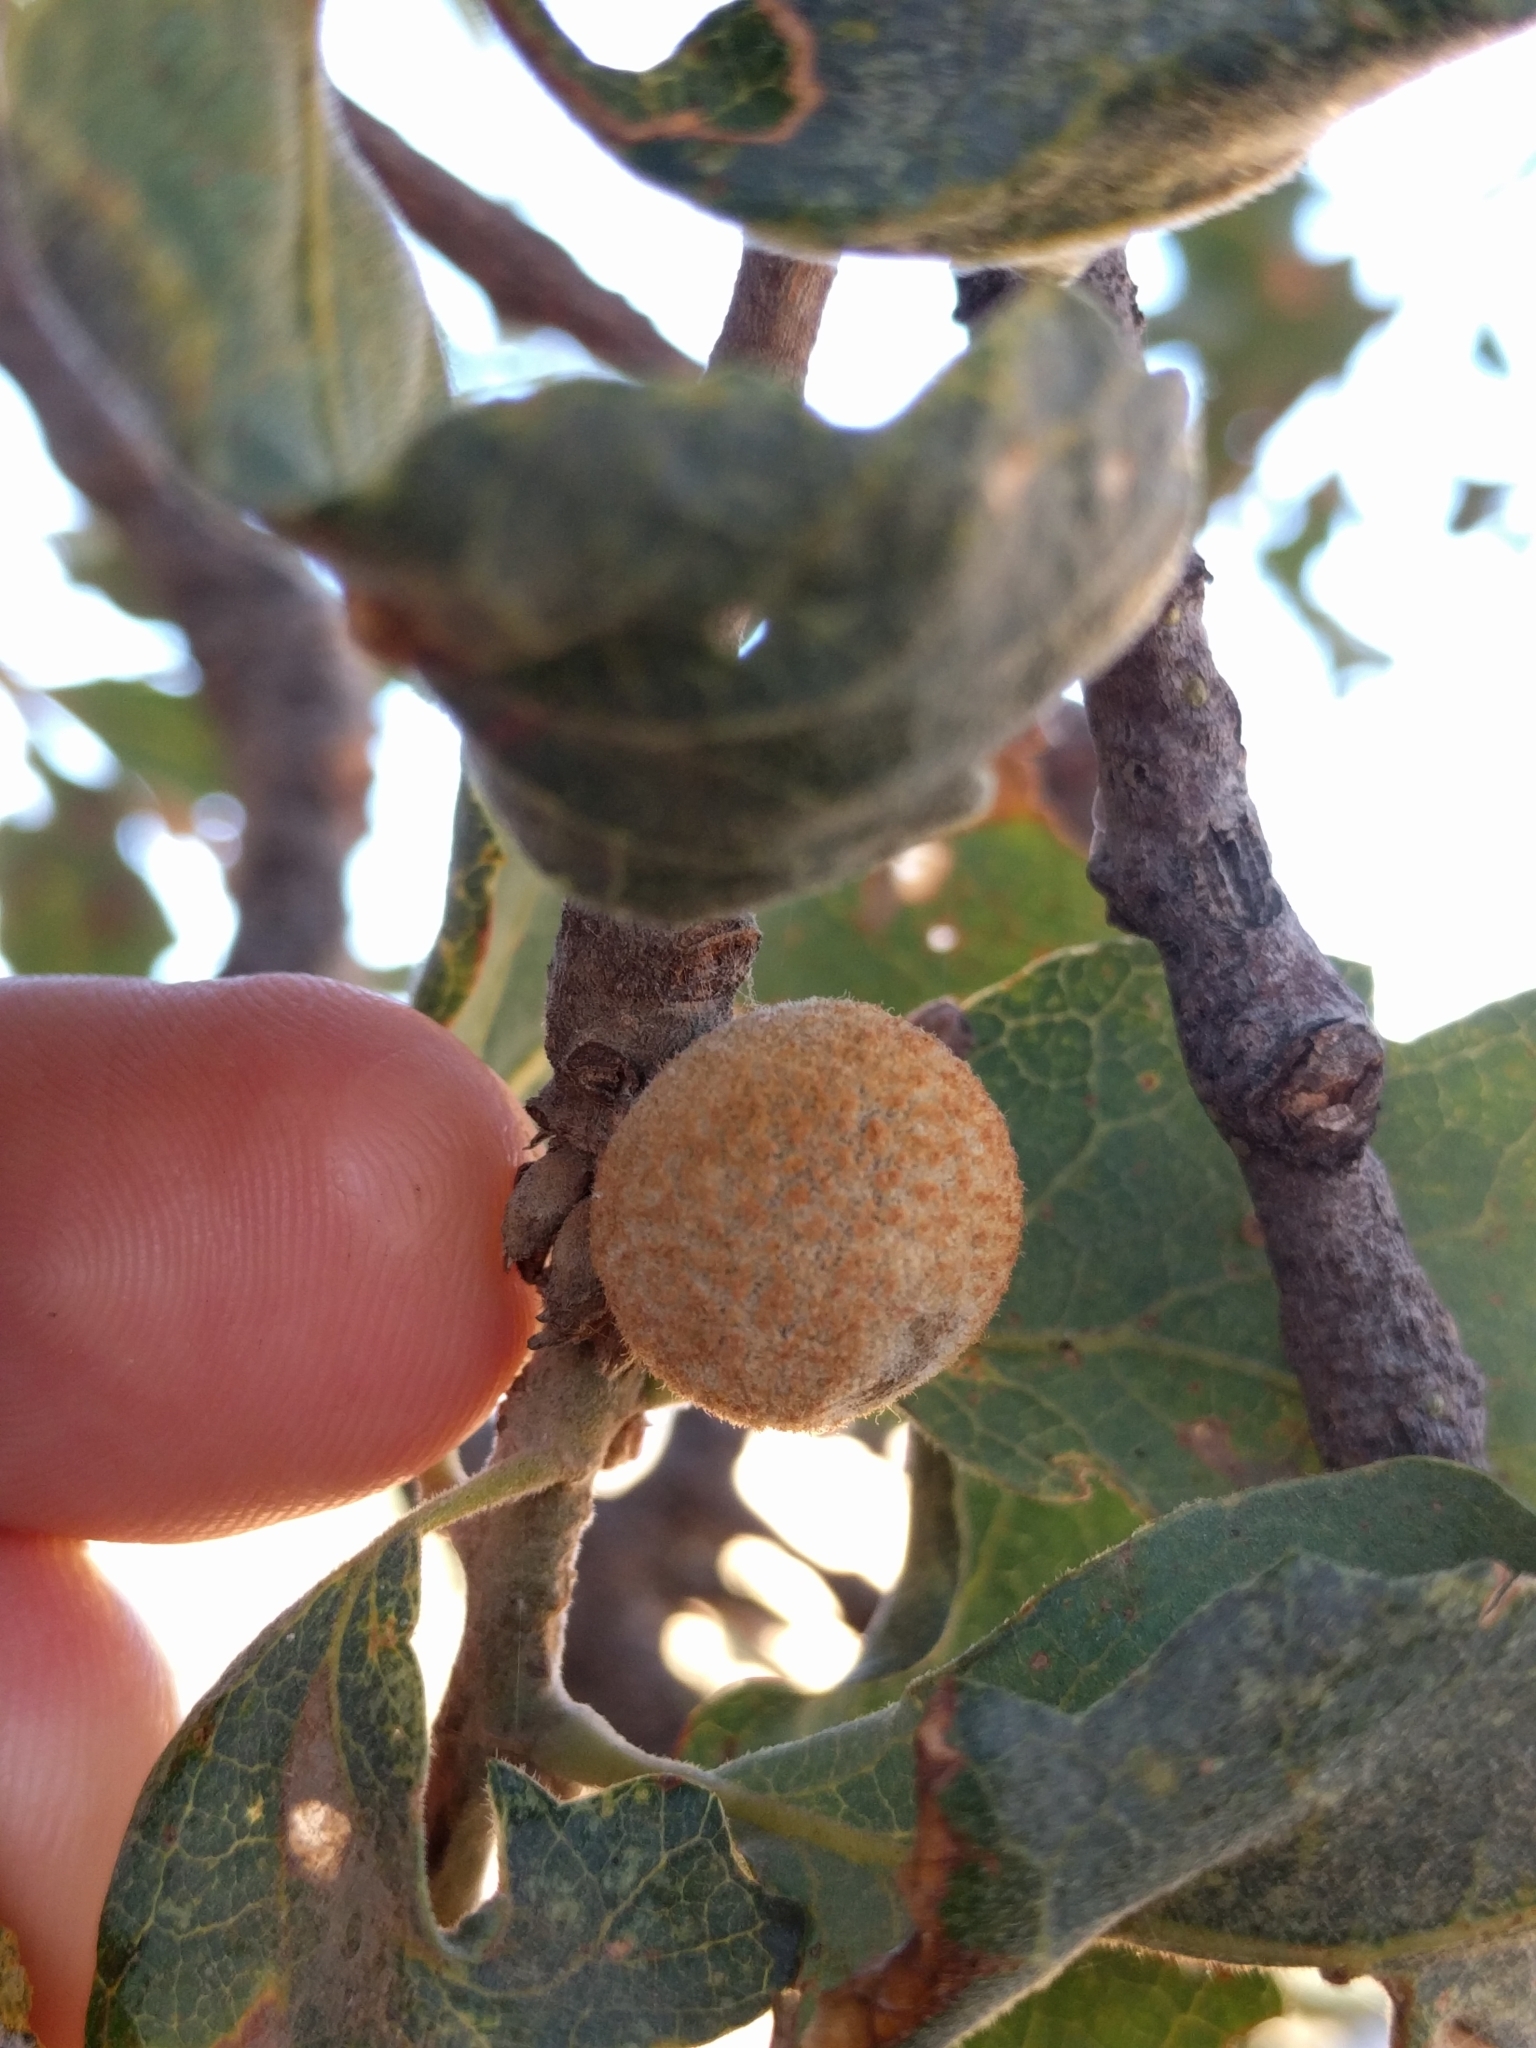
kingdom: Animalia
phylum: Arthropoda
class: Insecta
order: Hymenoptera
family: Cynipidae
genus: Cynips
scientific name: Cynips conspicua
